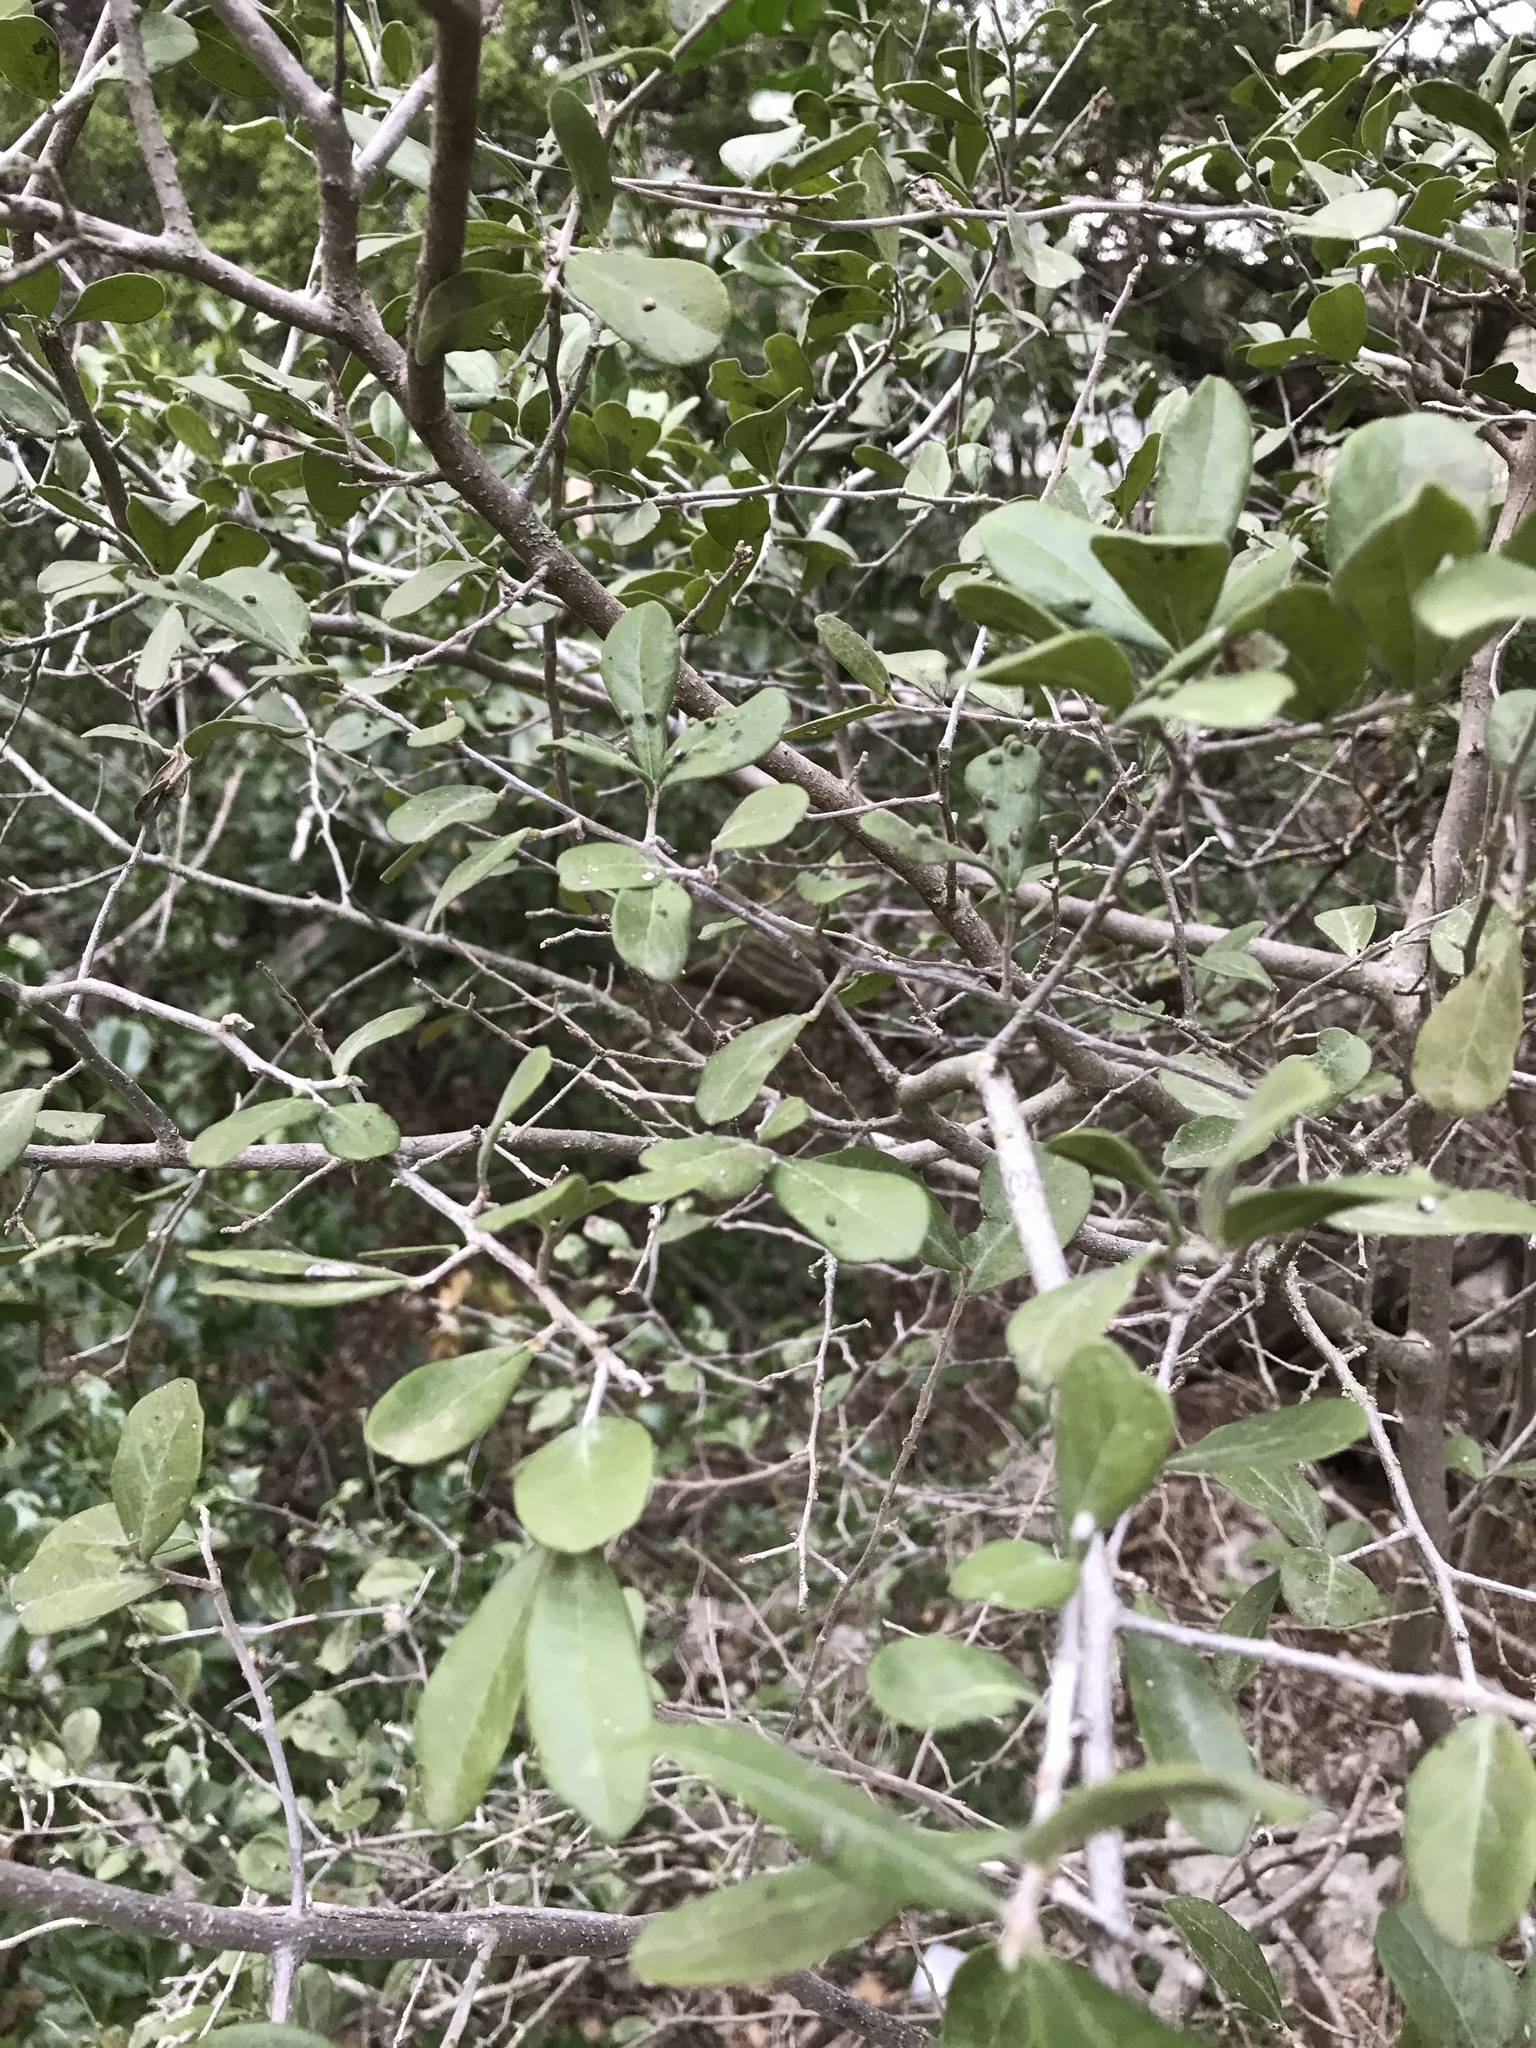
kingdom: Plantae
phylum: Tracheophyta
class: Magnoliopsida
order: Ericales
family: Ebenaceae
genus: Diospyros
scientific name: Diospyros texana
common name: Texas persimmon
